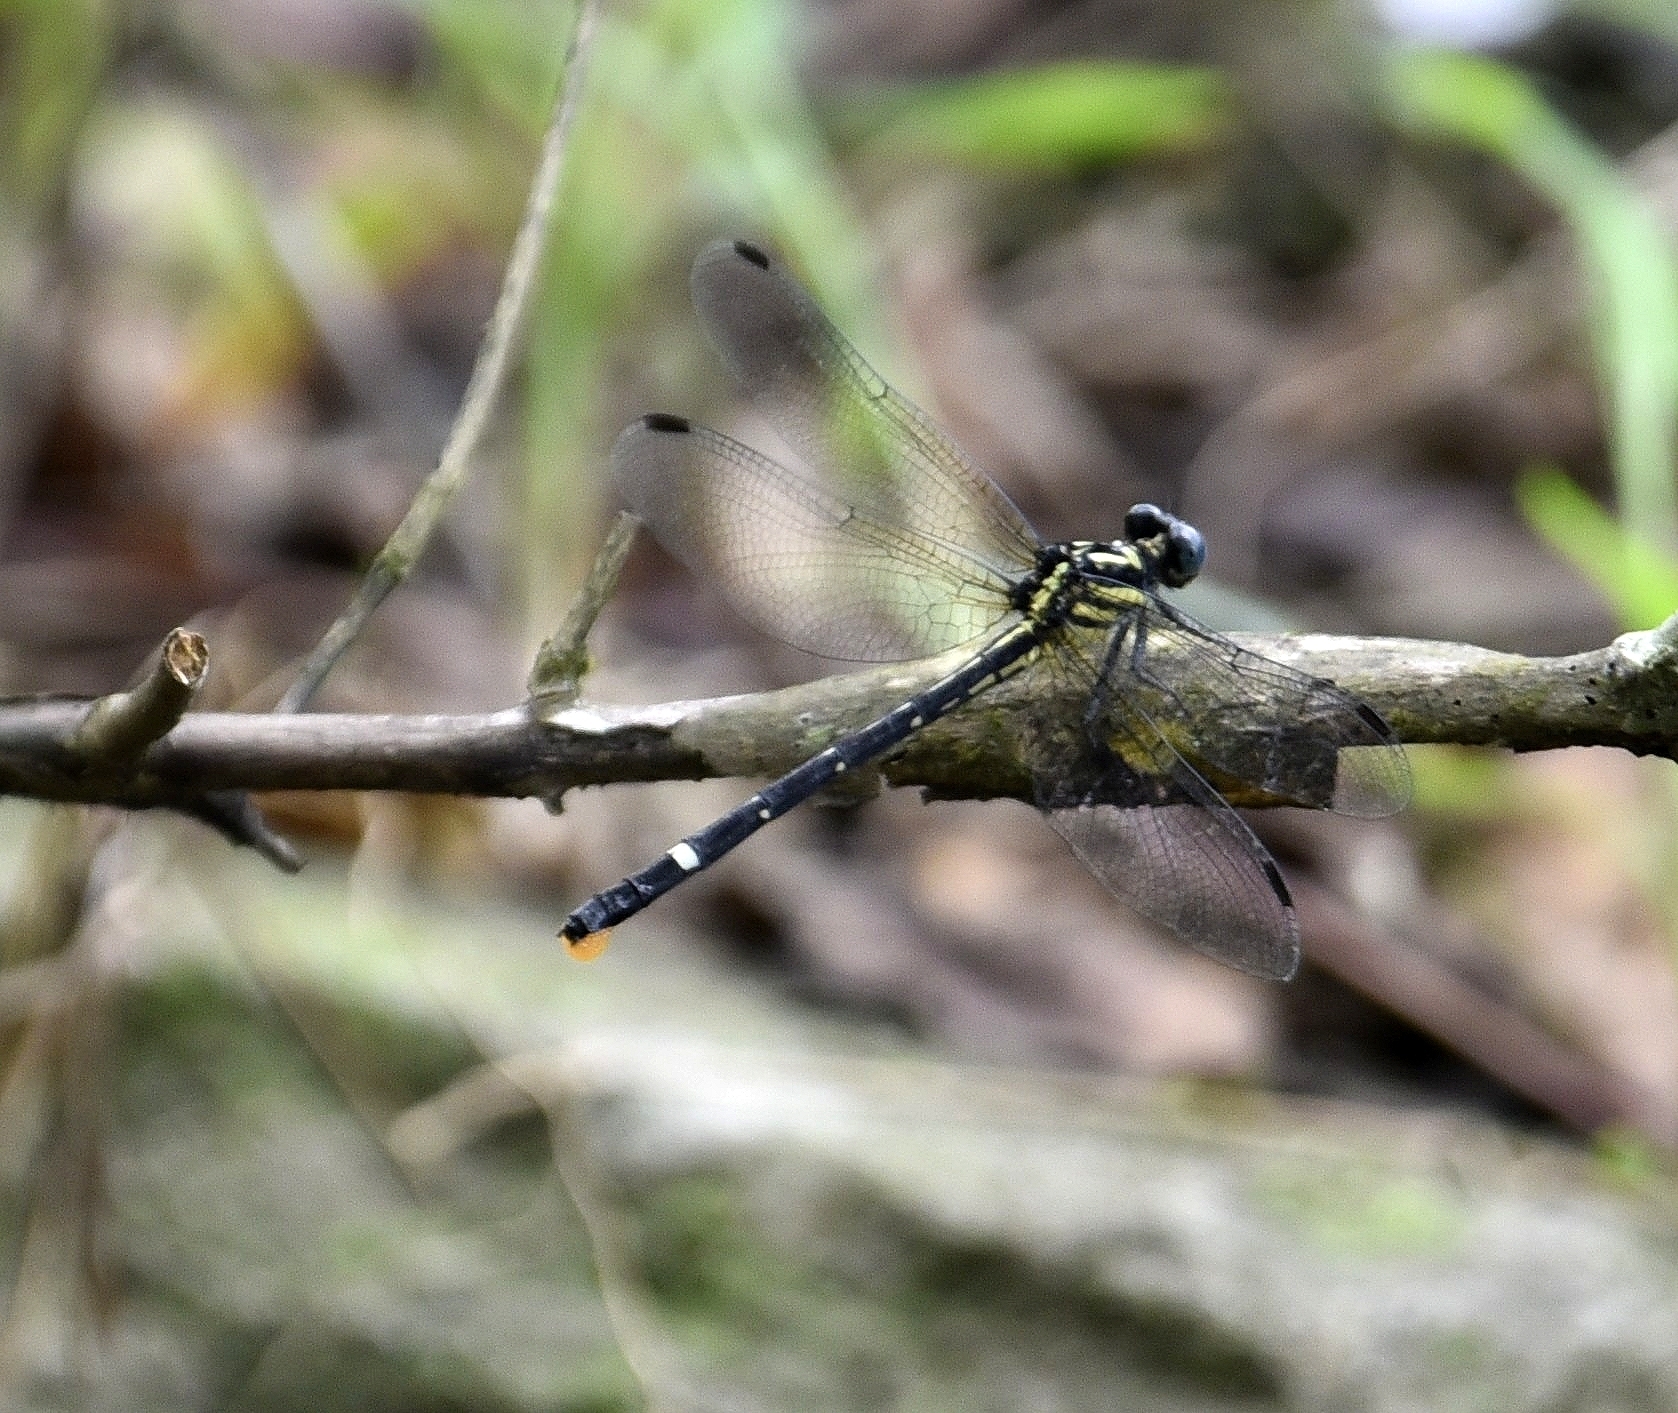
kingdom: Animalia
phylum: Arthropoda
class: Insecta
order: Odonata
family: Gomphidae
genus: Heliogomphus
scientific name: Heliogomphus promelas
